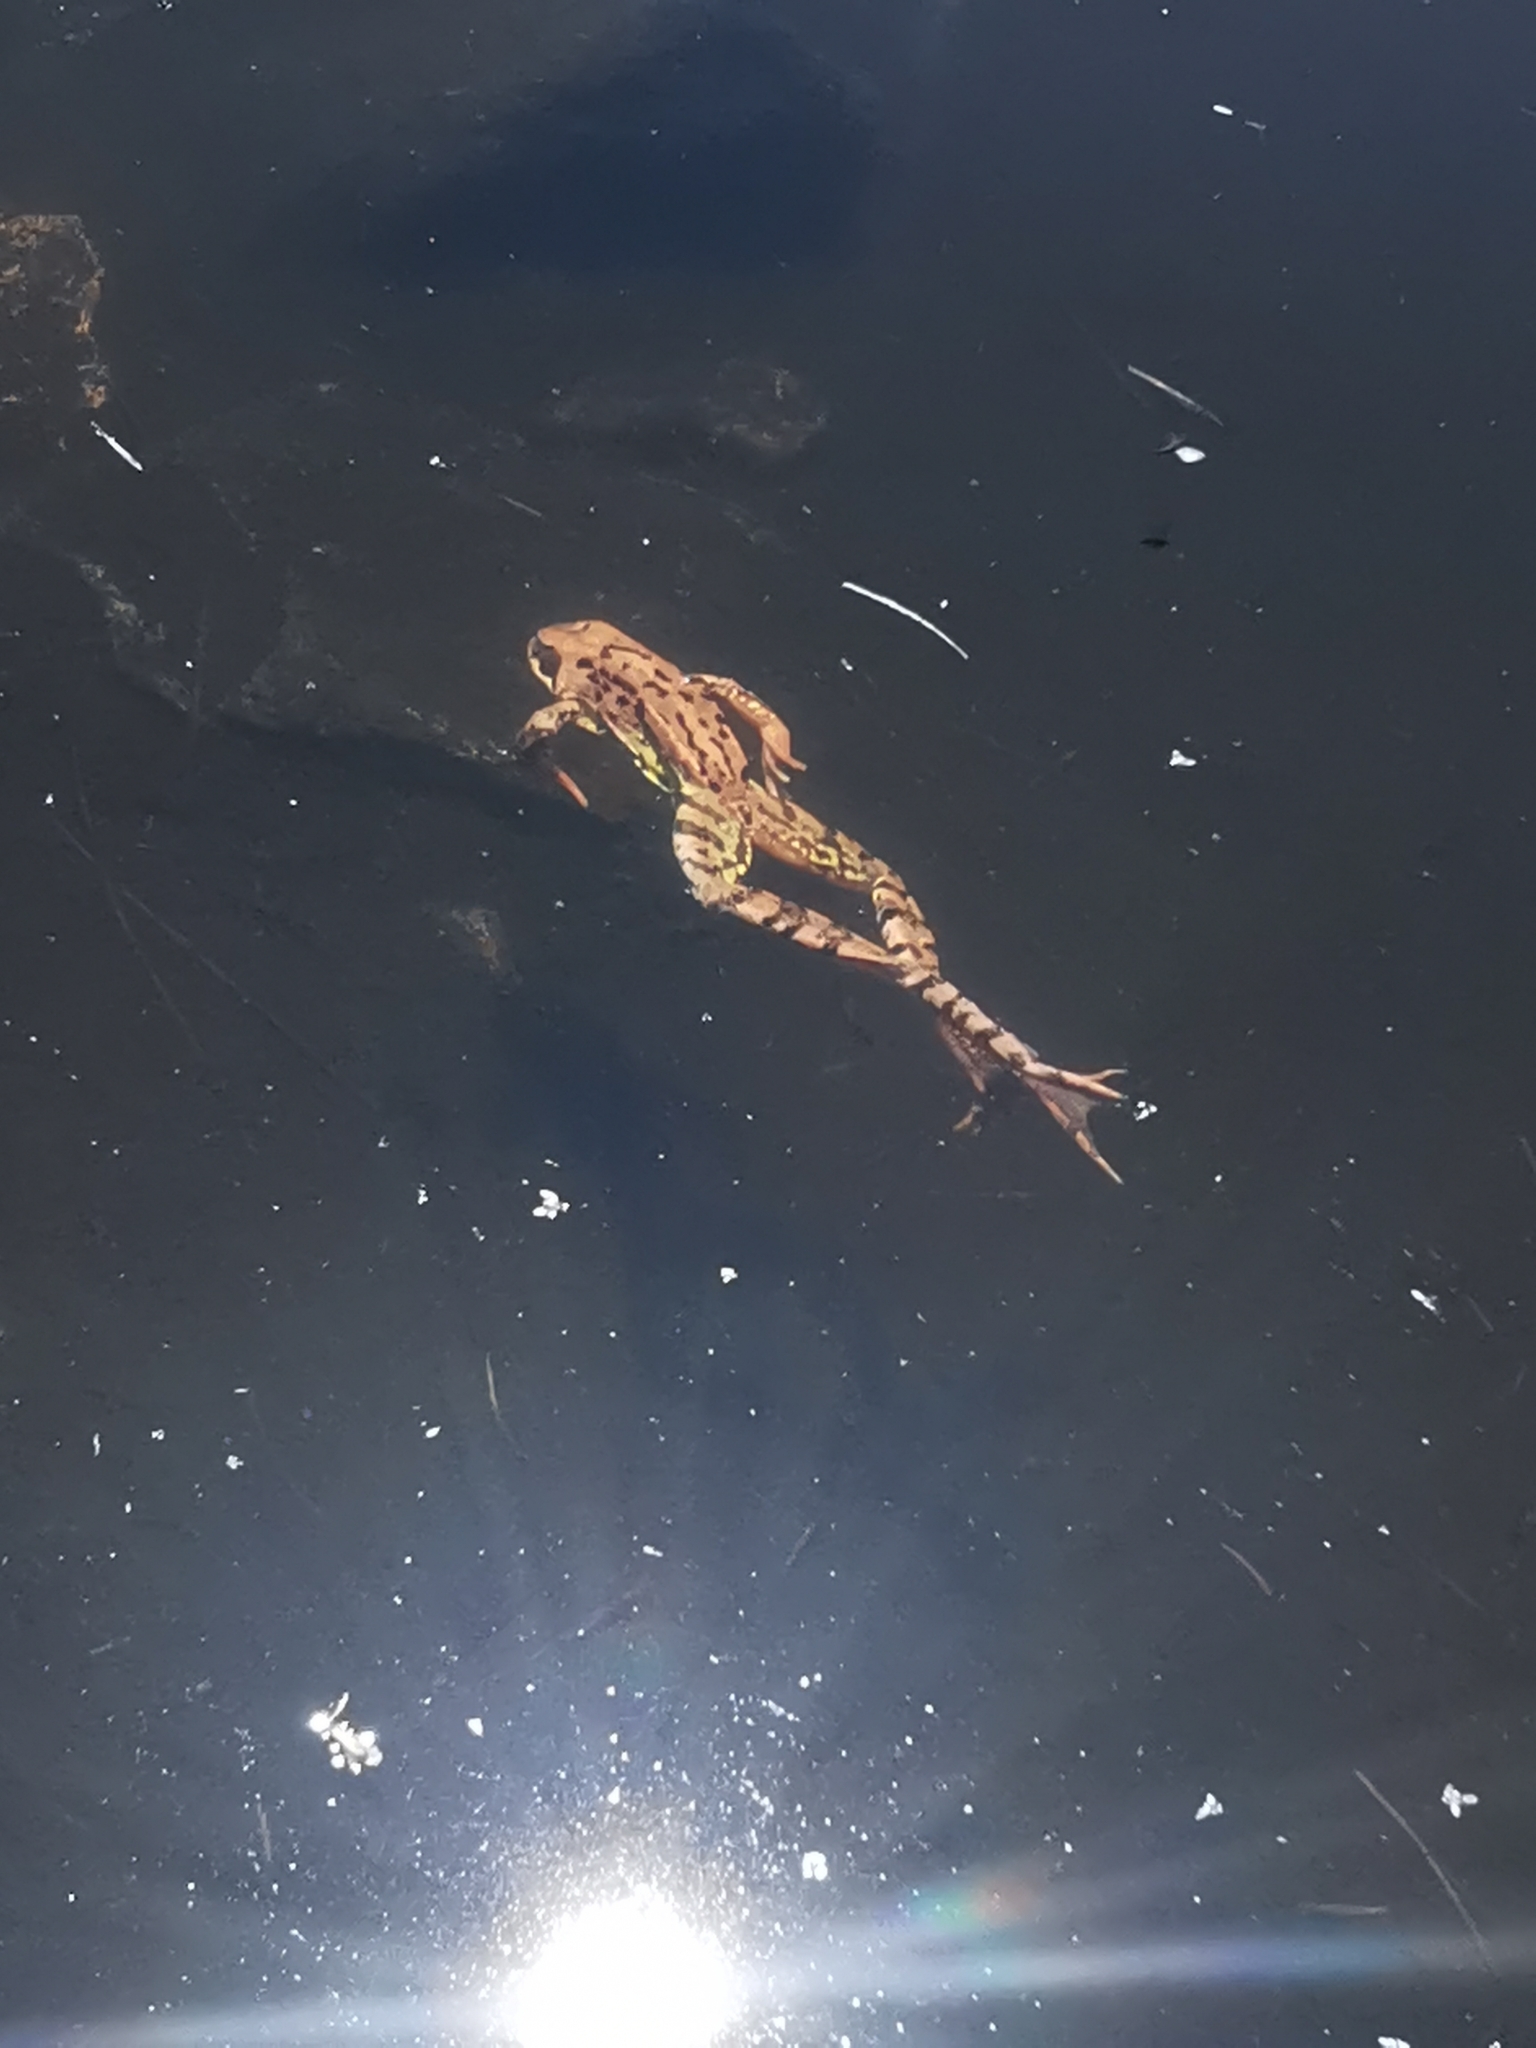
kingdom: Animalia
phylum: Chordata
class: Amphibia
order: Anura
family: Ranidae
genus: Rana
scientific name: Rana temporaria
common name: Common frog
